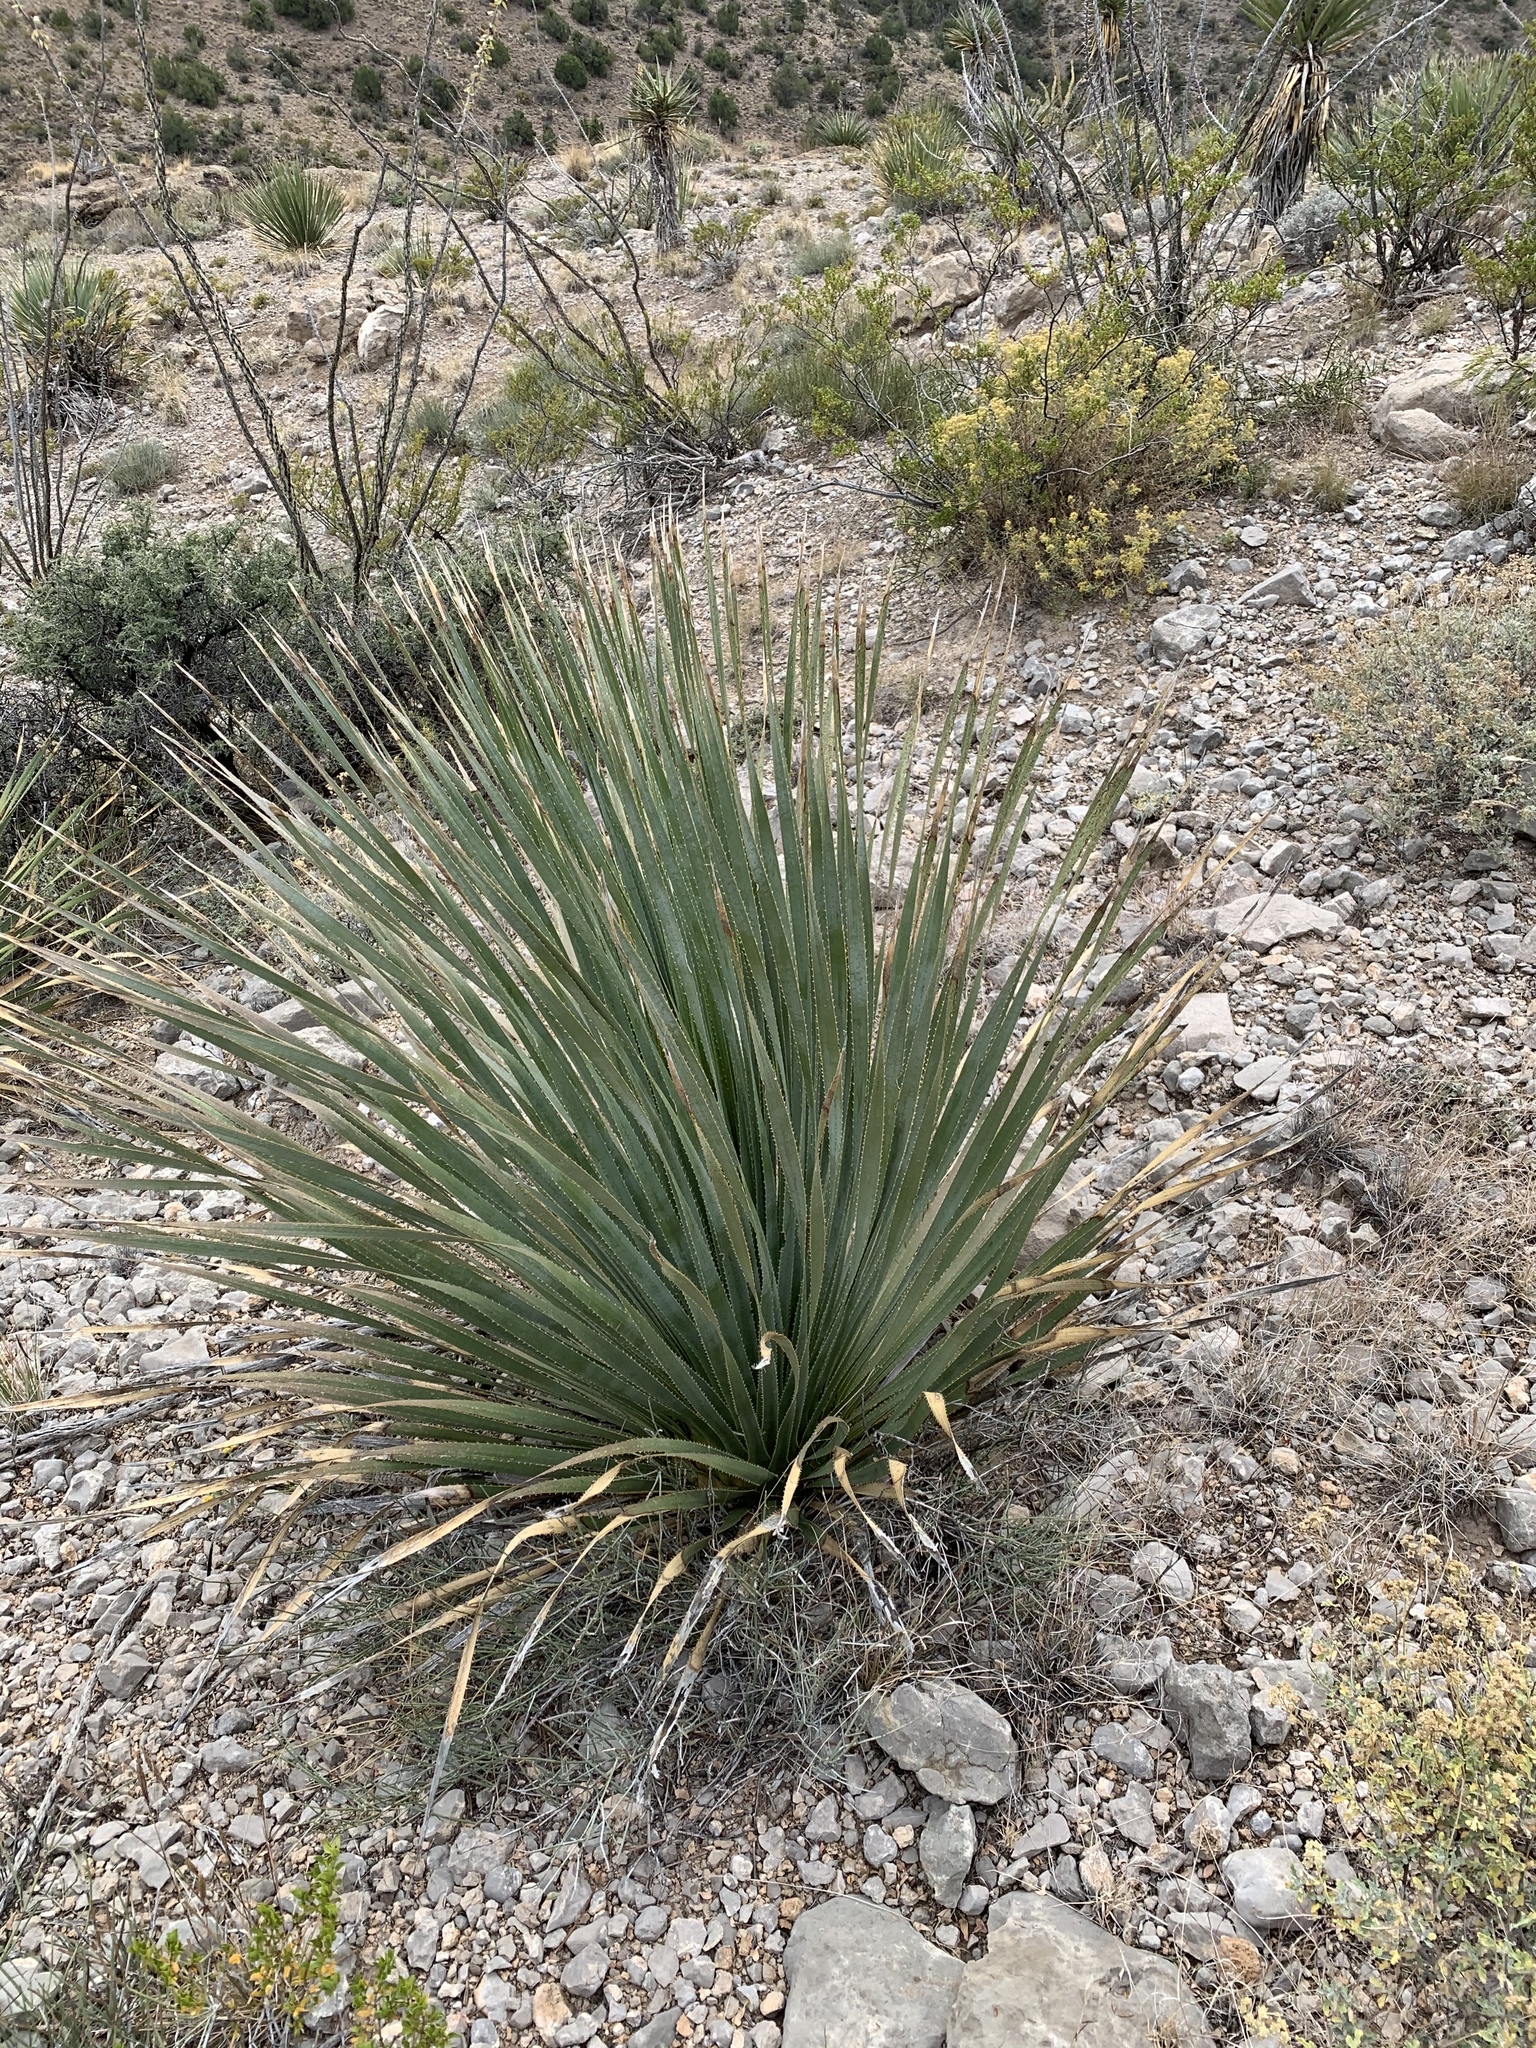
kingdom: Plantae
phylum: Tracheophyta
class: Liliopsida
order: Asparagales
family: Asparagaceae
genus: Dasylirion
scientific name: Dasylirion wheeleri
